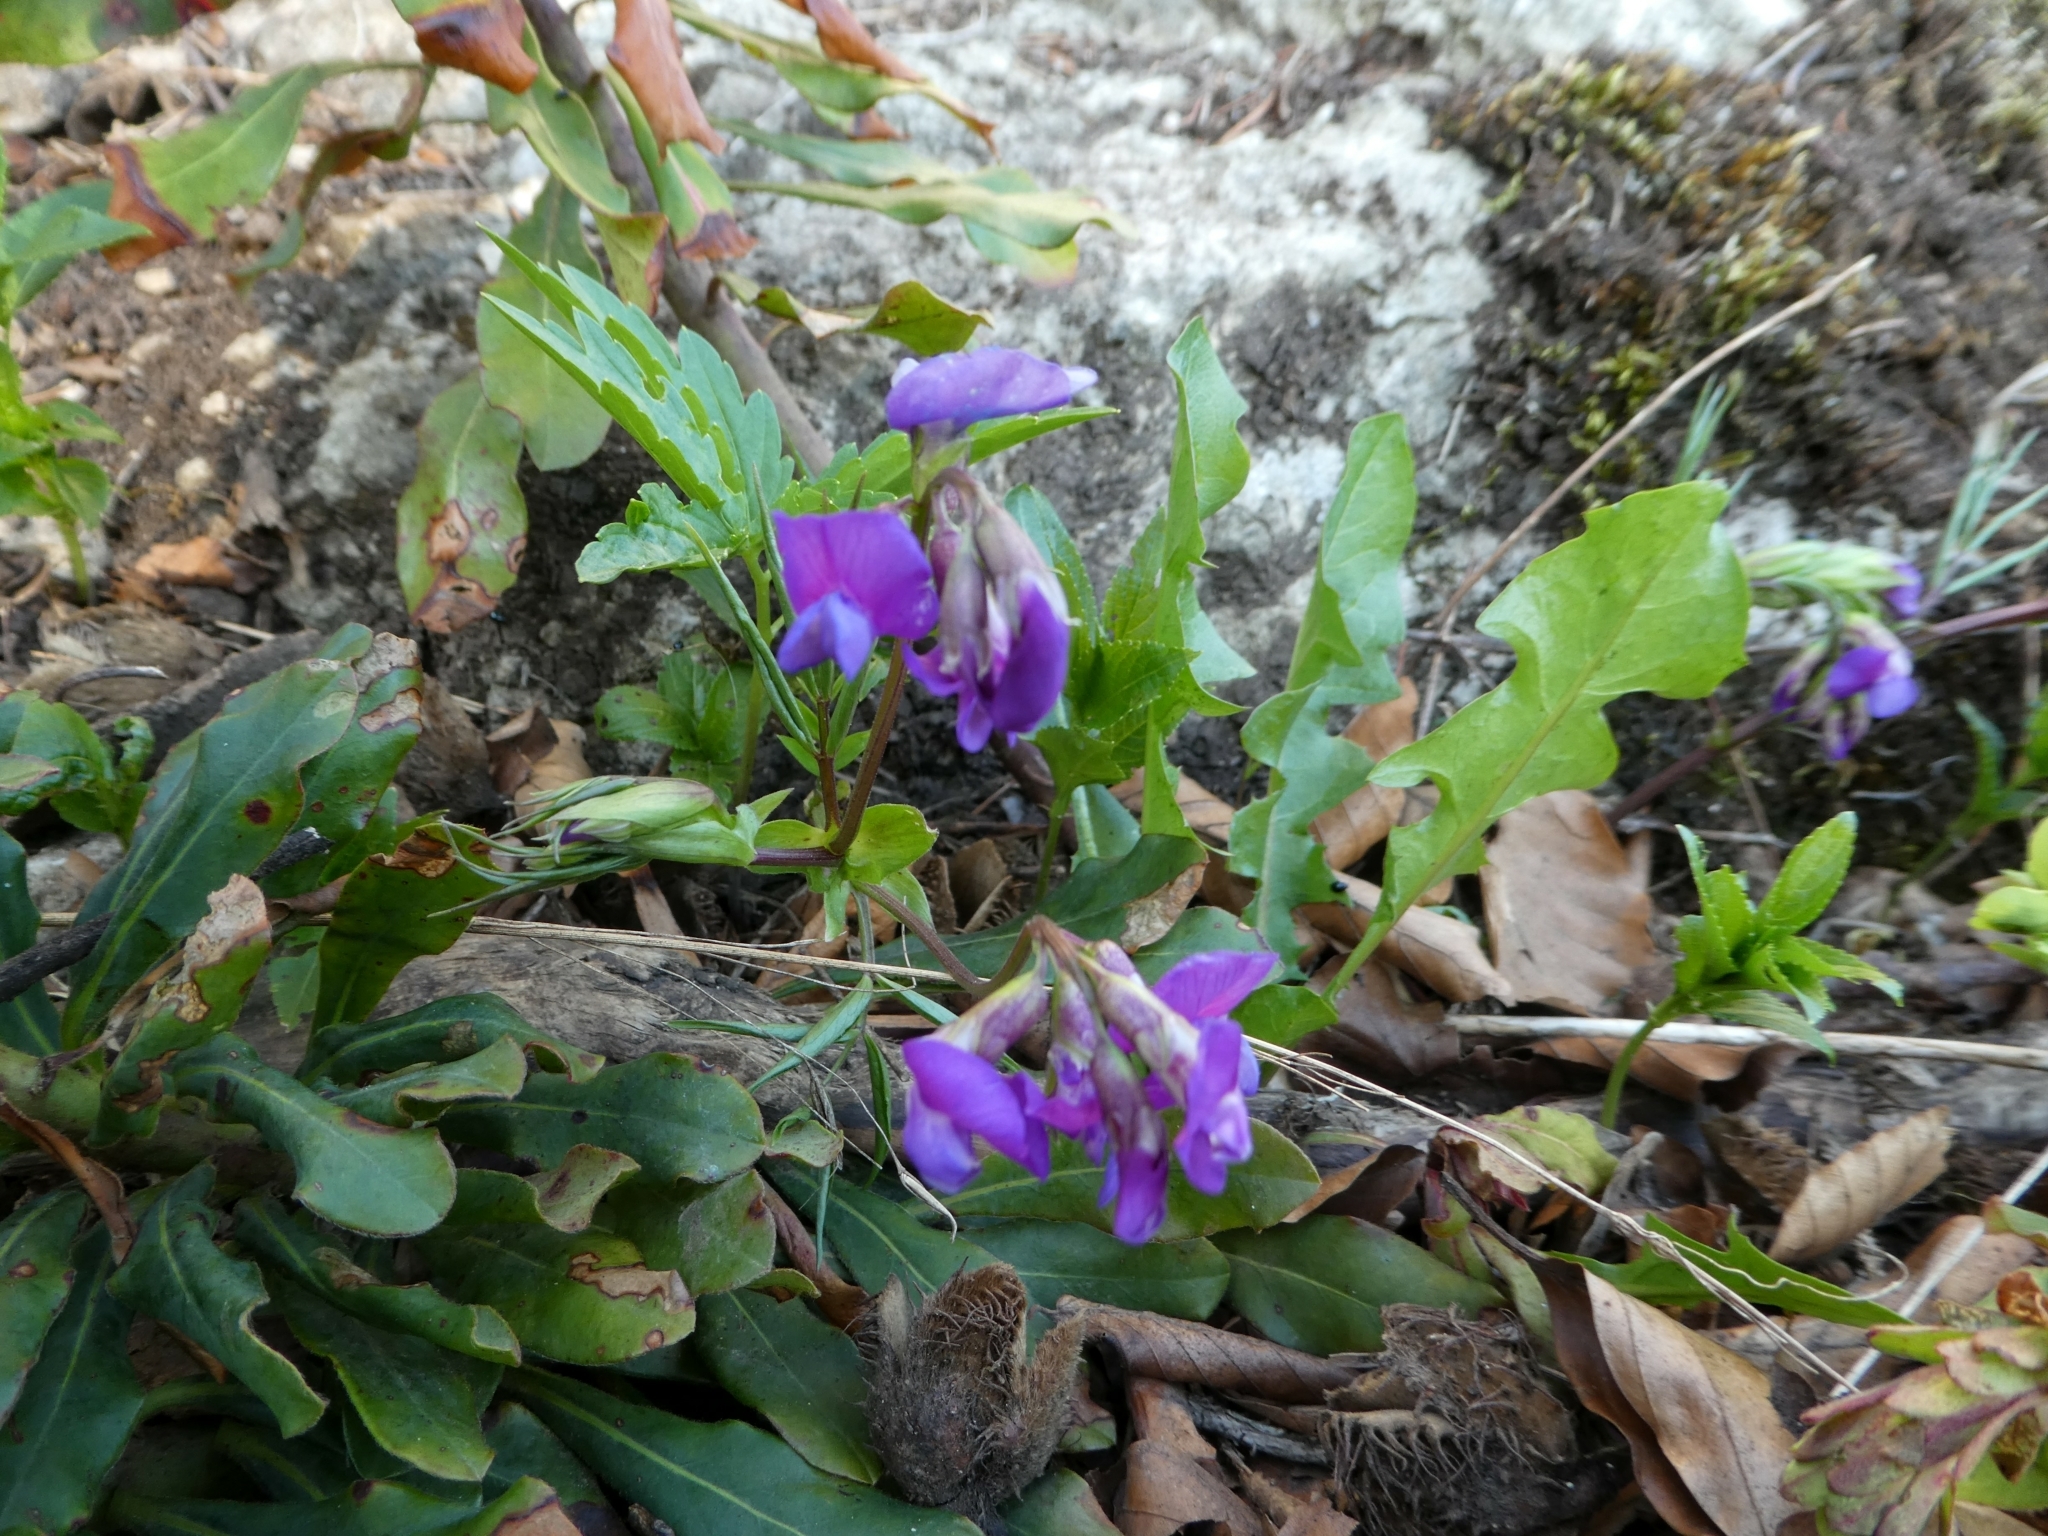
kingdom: Plantae
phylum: Tracheophyta
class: Magnoliopsida
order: Fabales
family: Fabaceae
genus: Lathyrus
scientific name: Lathyrus vernus
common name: Spring pea
